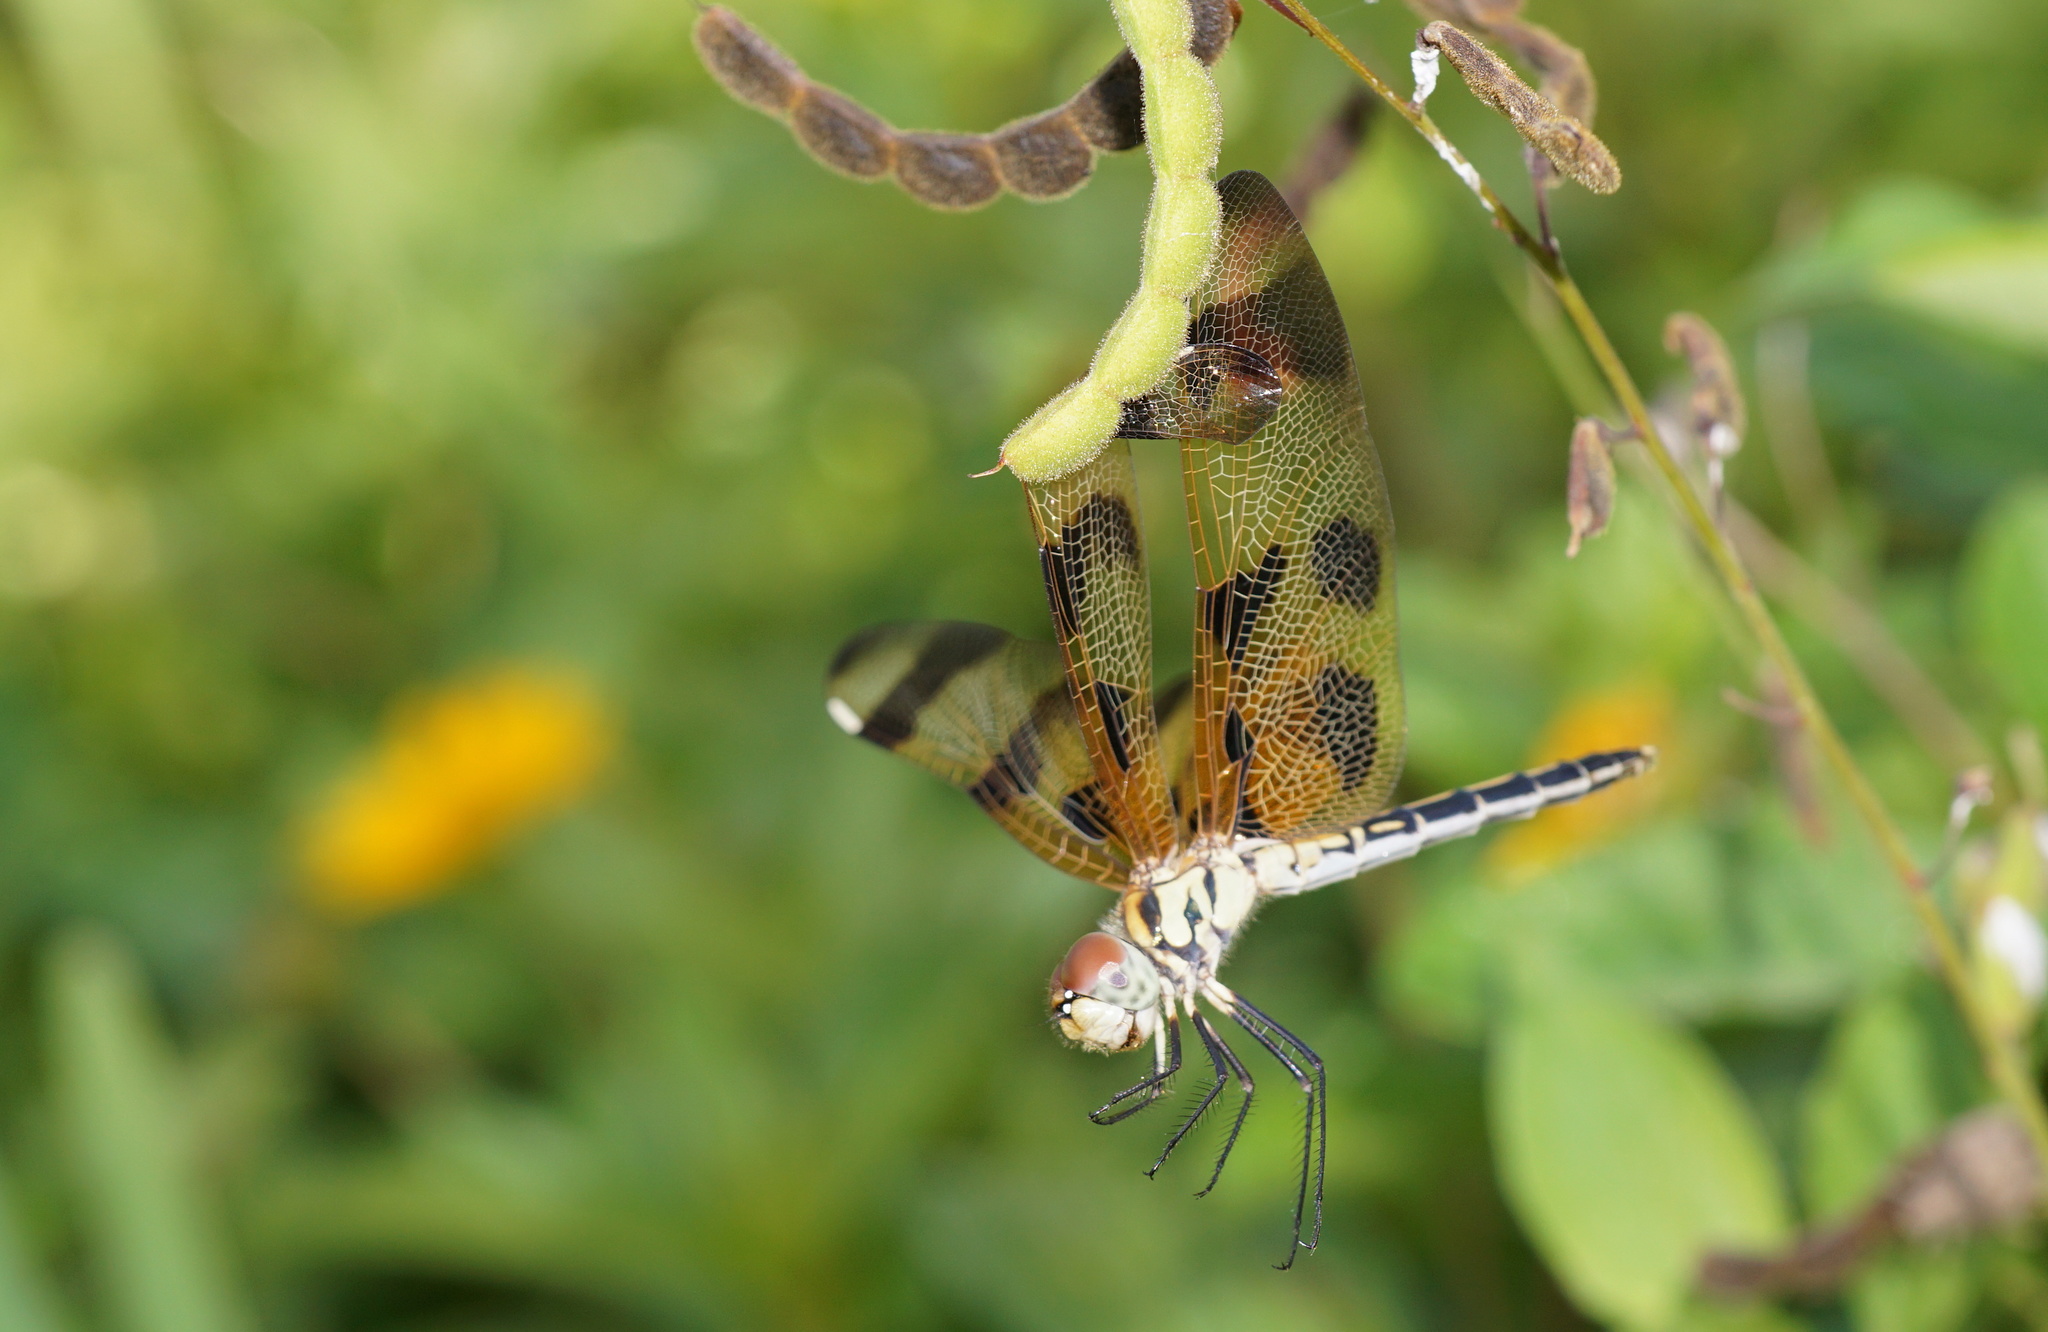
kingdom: Animalia
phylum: Arthropoda
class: Insecta
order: Odonata
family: Libellulidae
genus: Celithemis
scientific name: Celithemis eponina
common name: Halloween pennant
